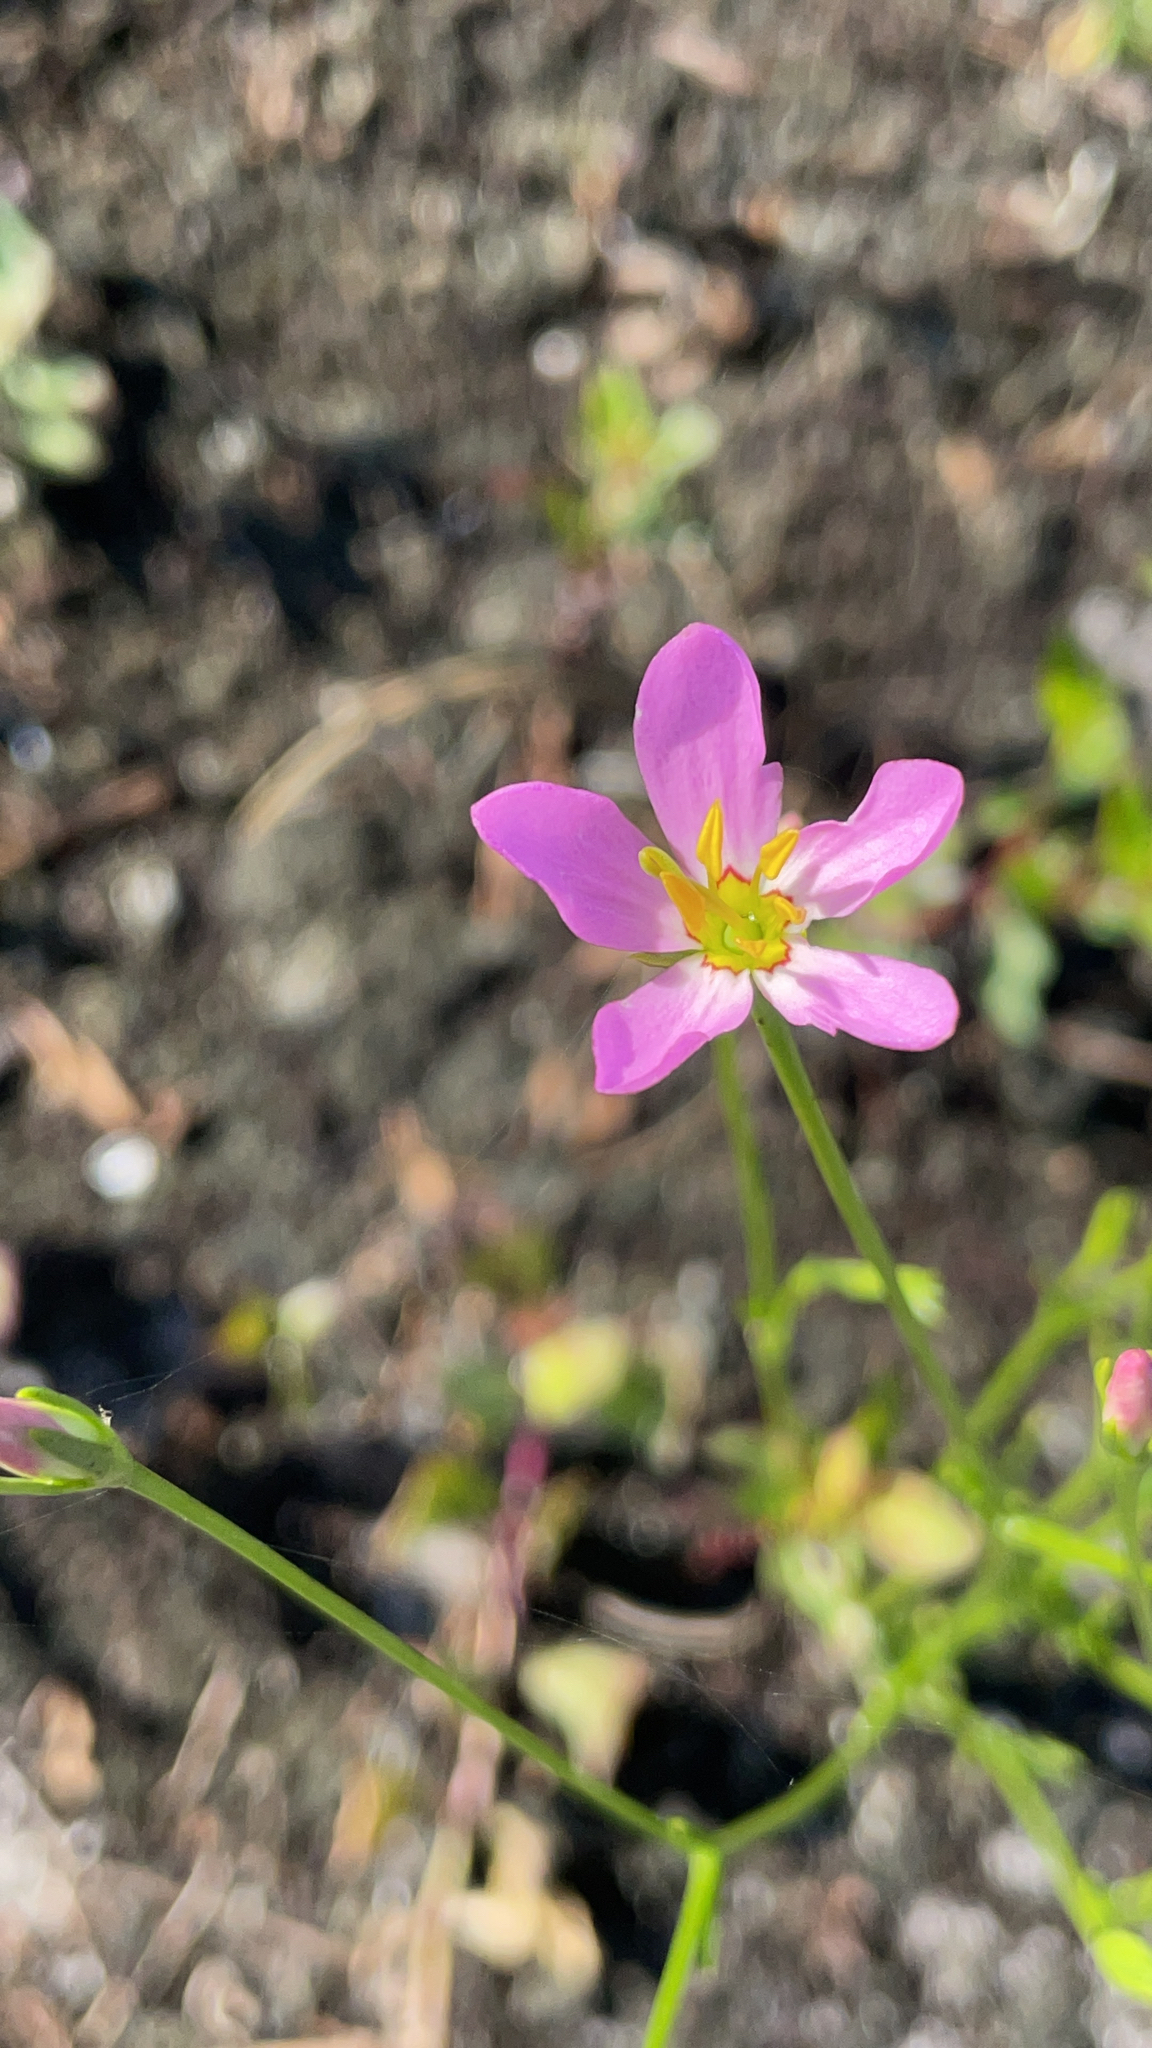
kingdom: Plantae
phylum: Tracheophyta
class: Magnoliopsida
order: Gentianales
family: Gentianaceae
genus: Sabatia
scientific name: Sabatia stellaris
